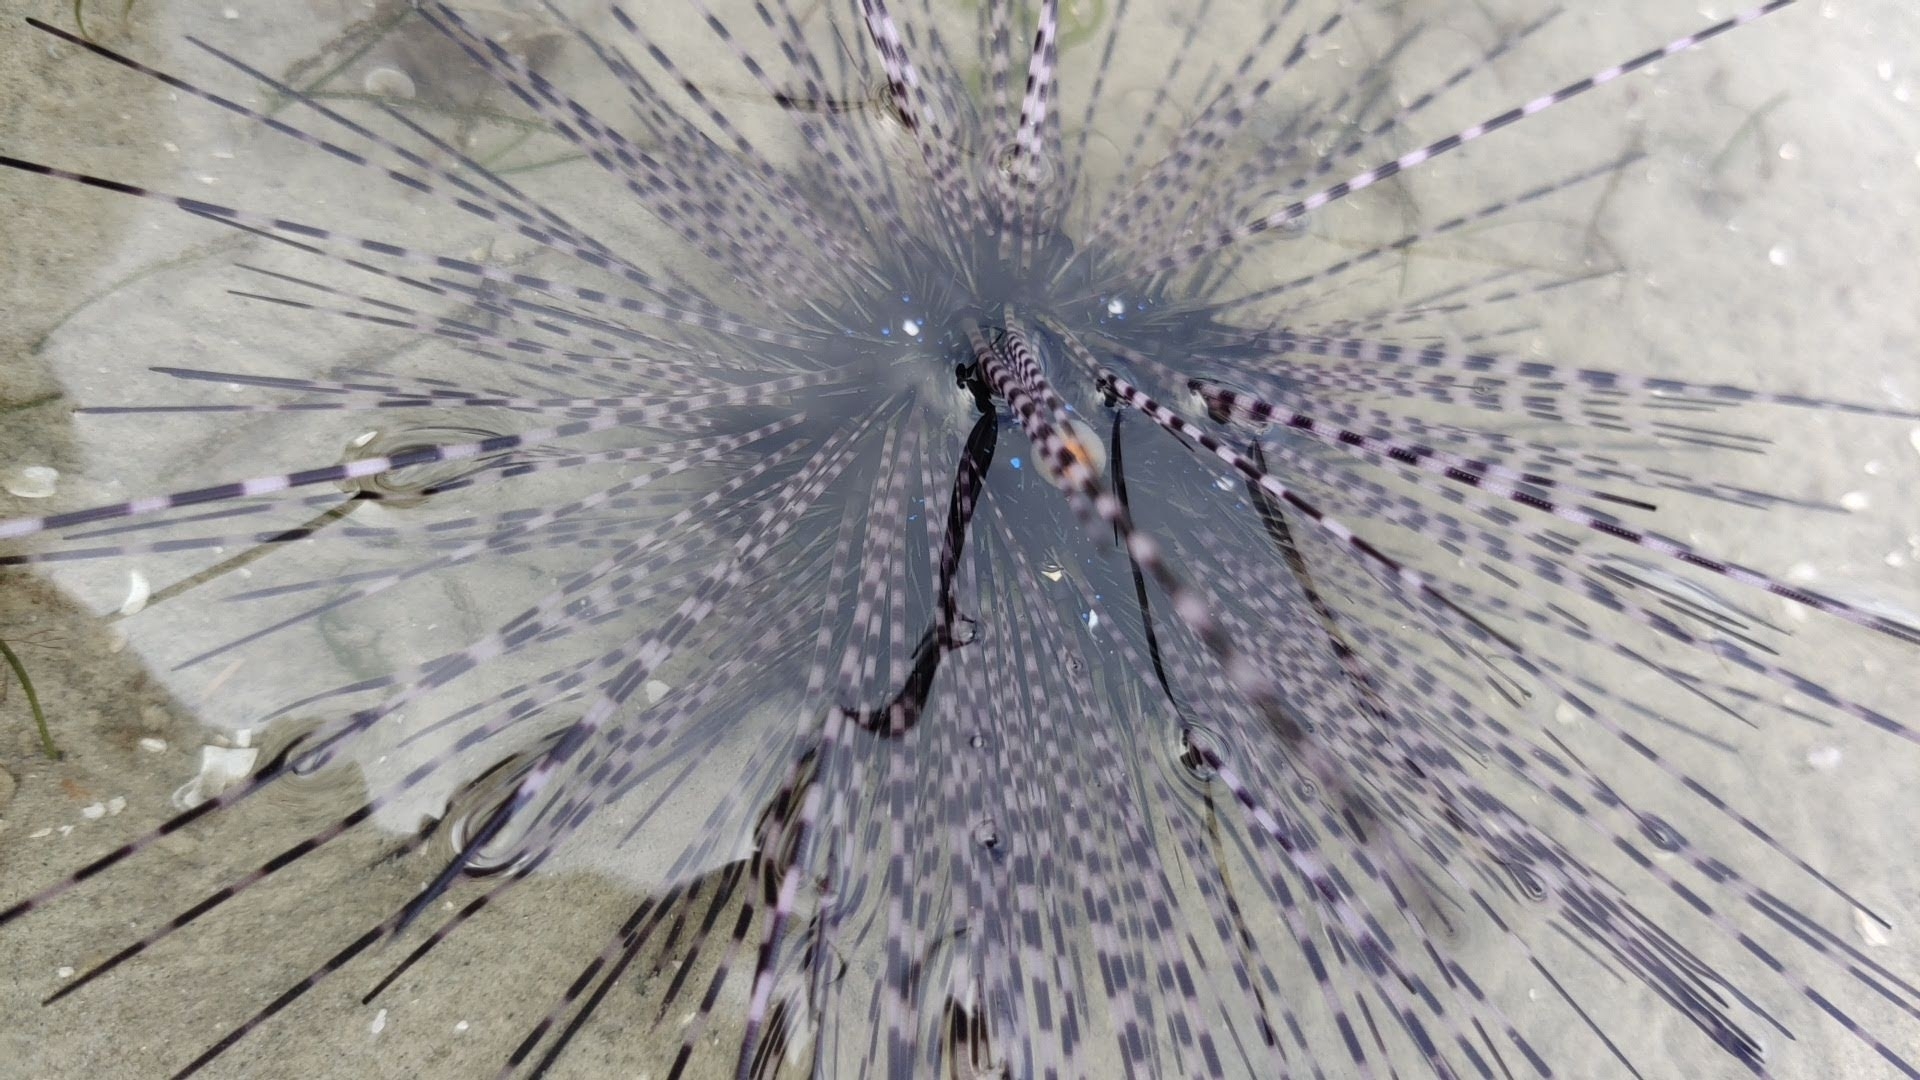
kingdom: Animalia
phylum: Echinodermata
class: Echinoidea
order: Diadematoida
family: Diadematidae
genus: Diadema
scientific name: Diadema setosum
